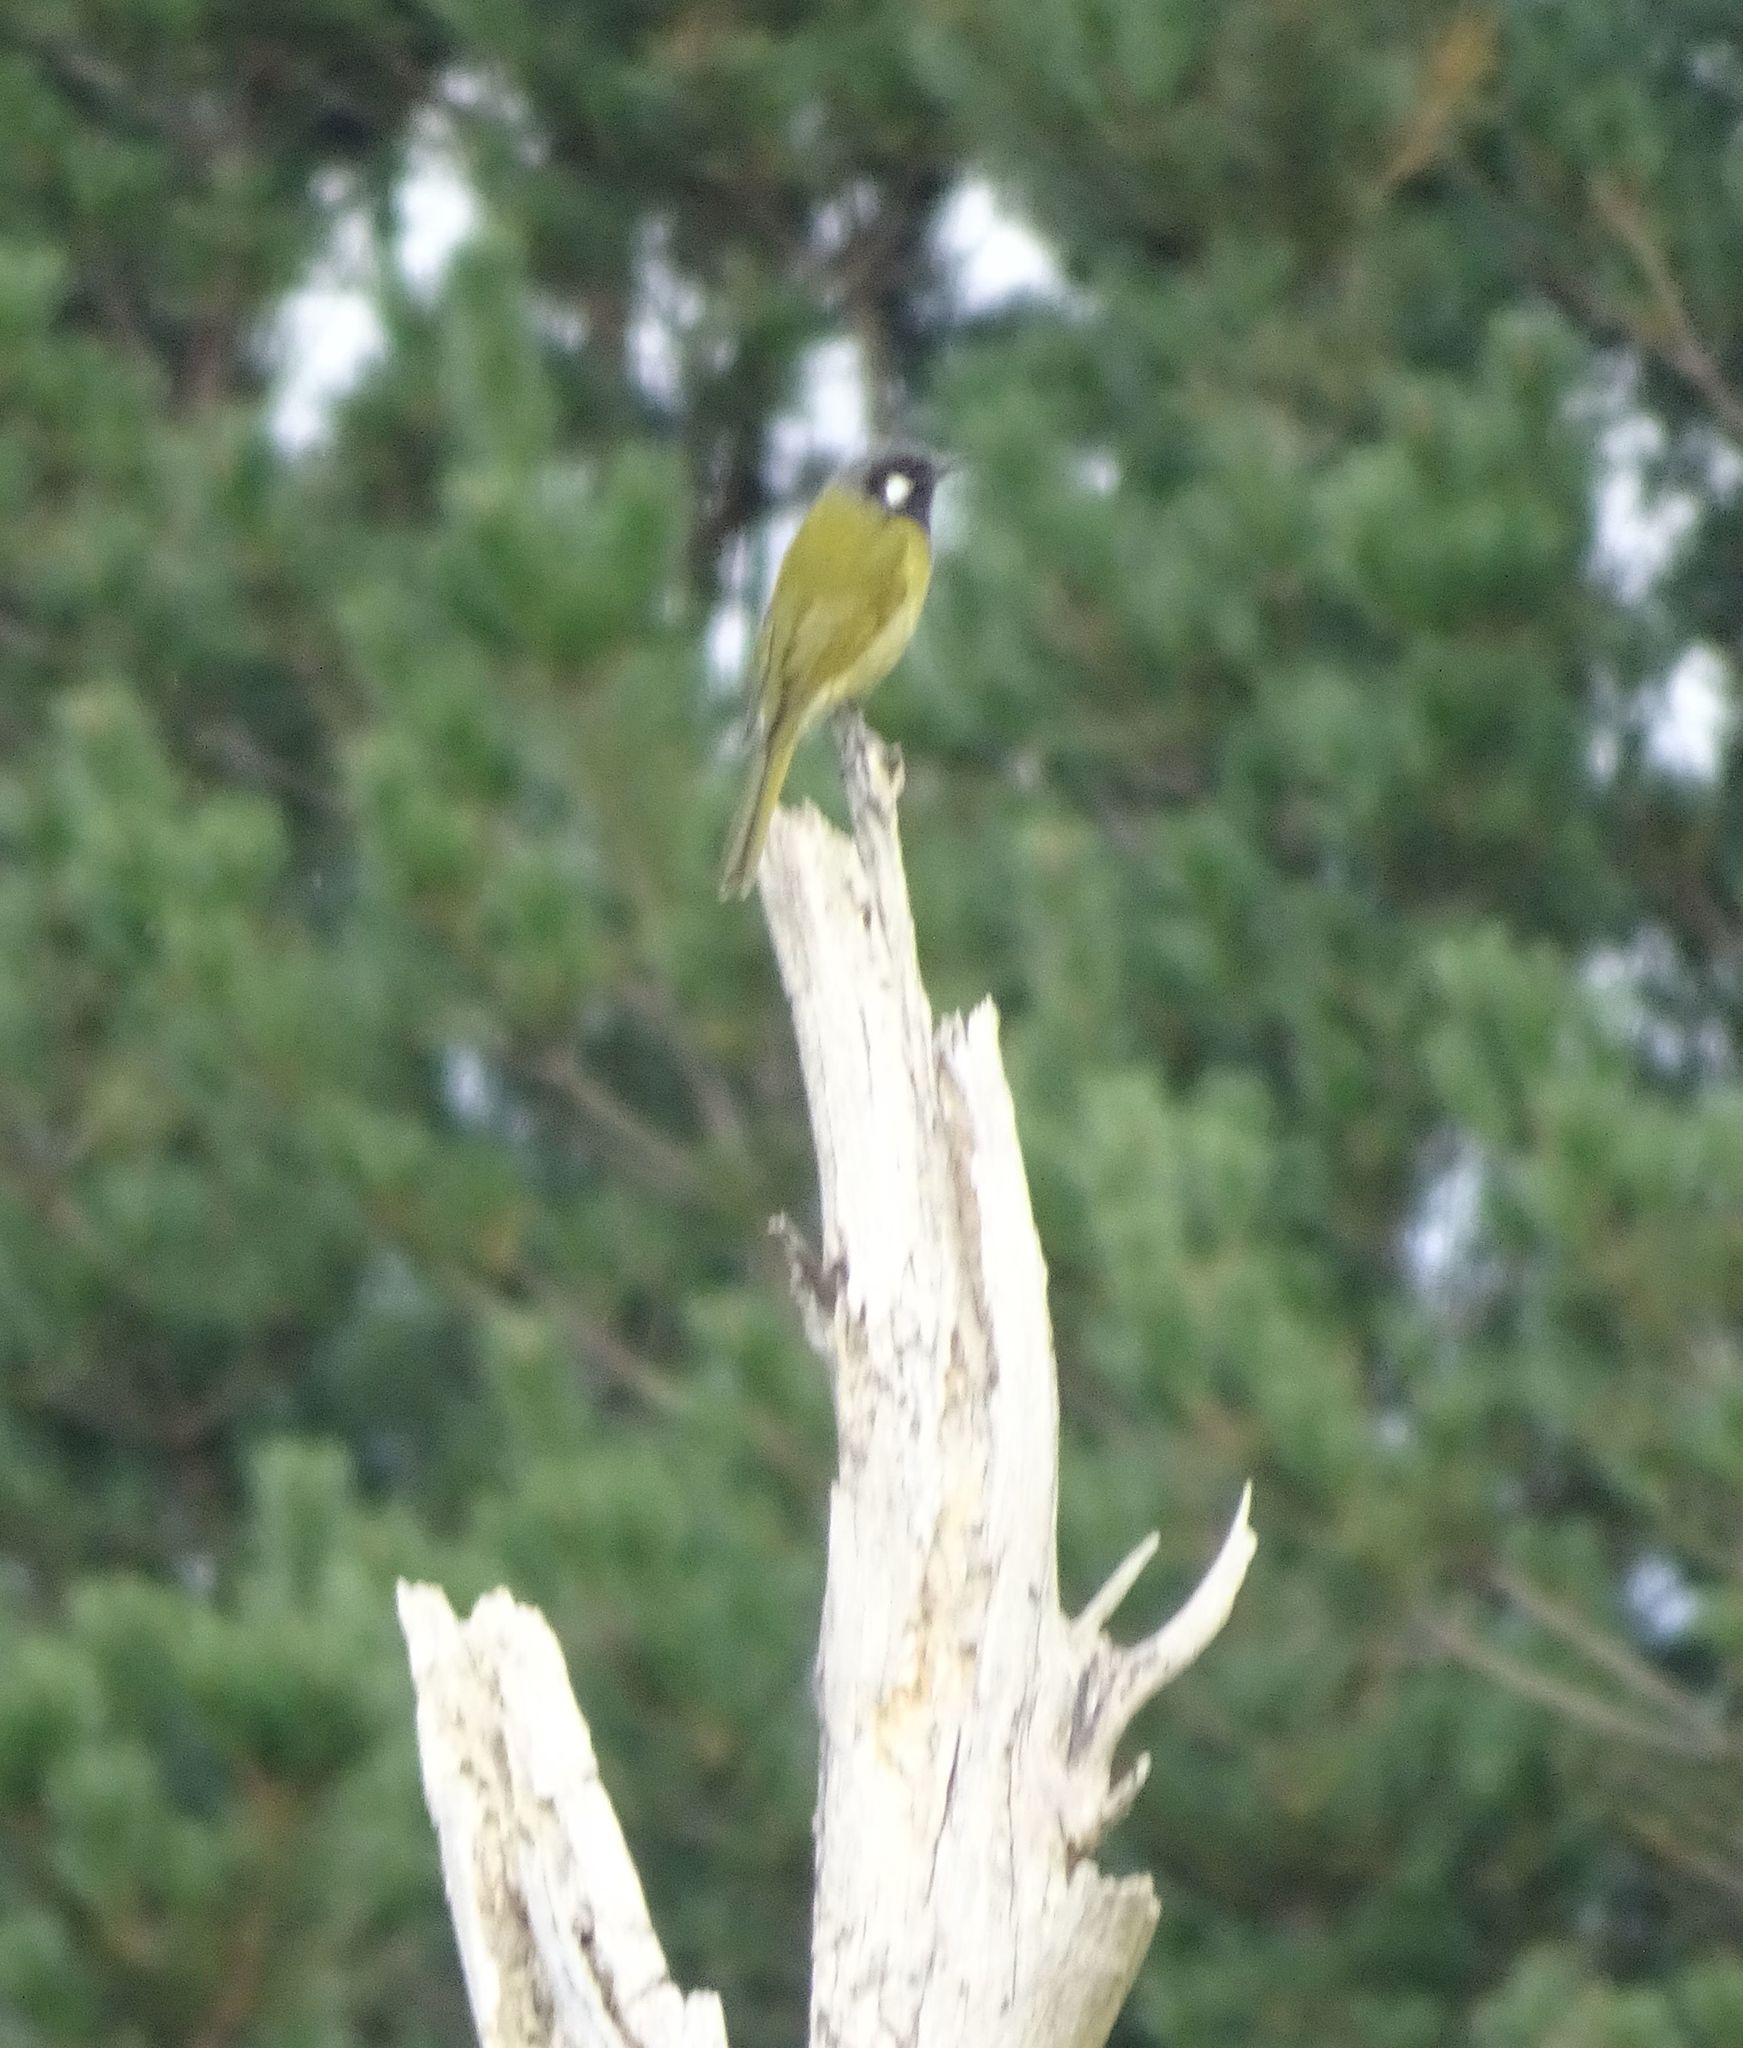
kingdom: Animalia
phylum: Chordata
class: Aves
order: Passeriformes
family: Meliphagidae
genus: Nesoptilotis
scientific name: Nesoptilotis leucotis
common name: White-eared honeyeater
